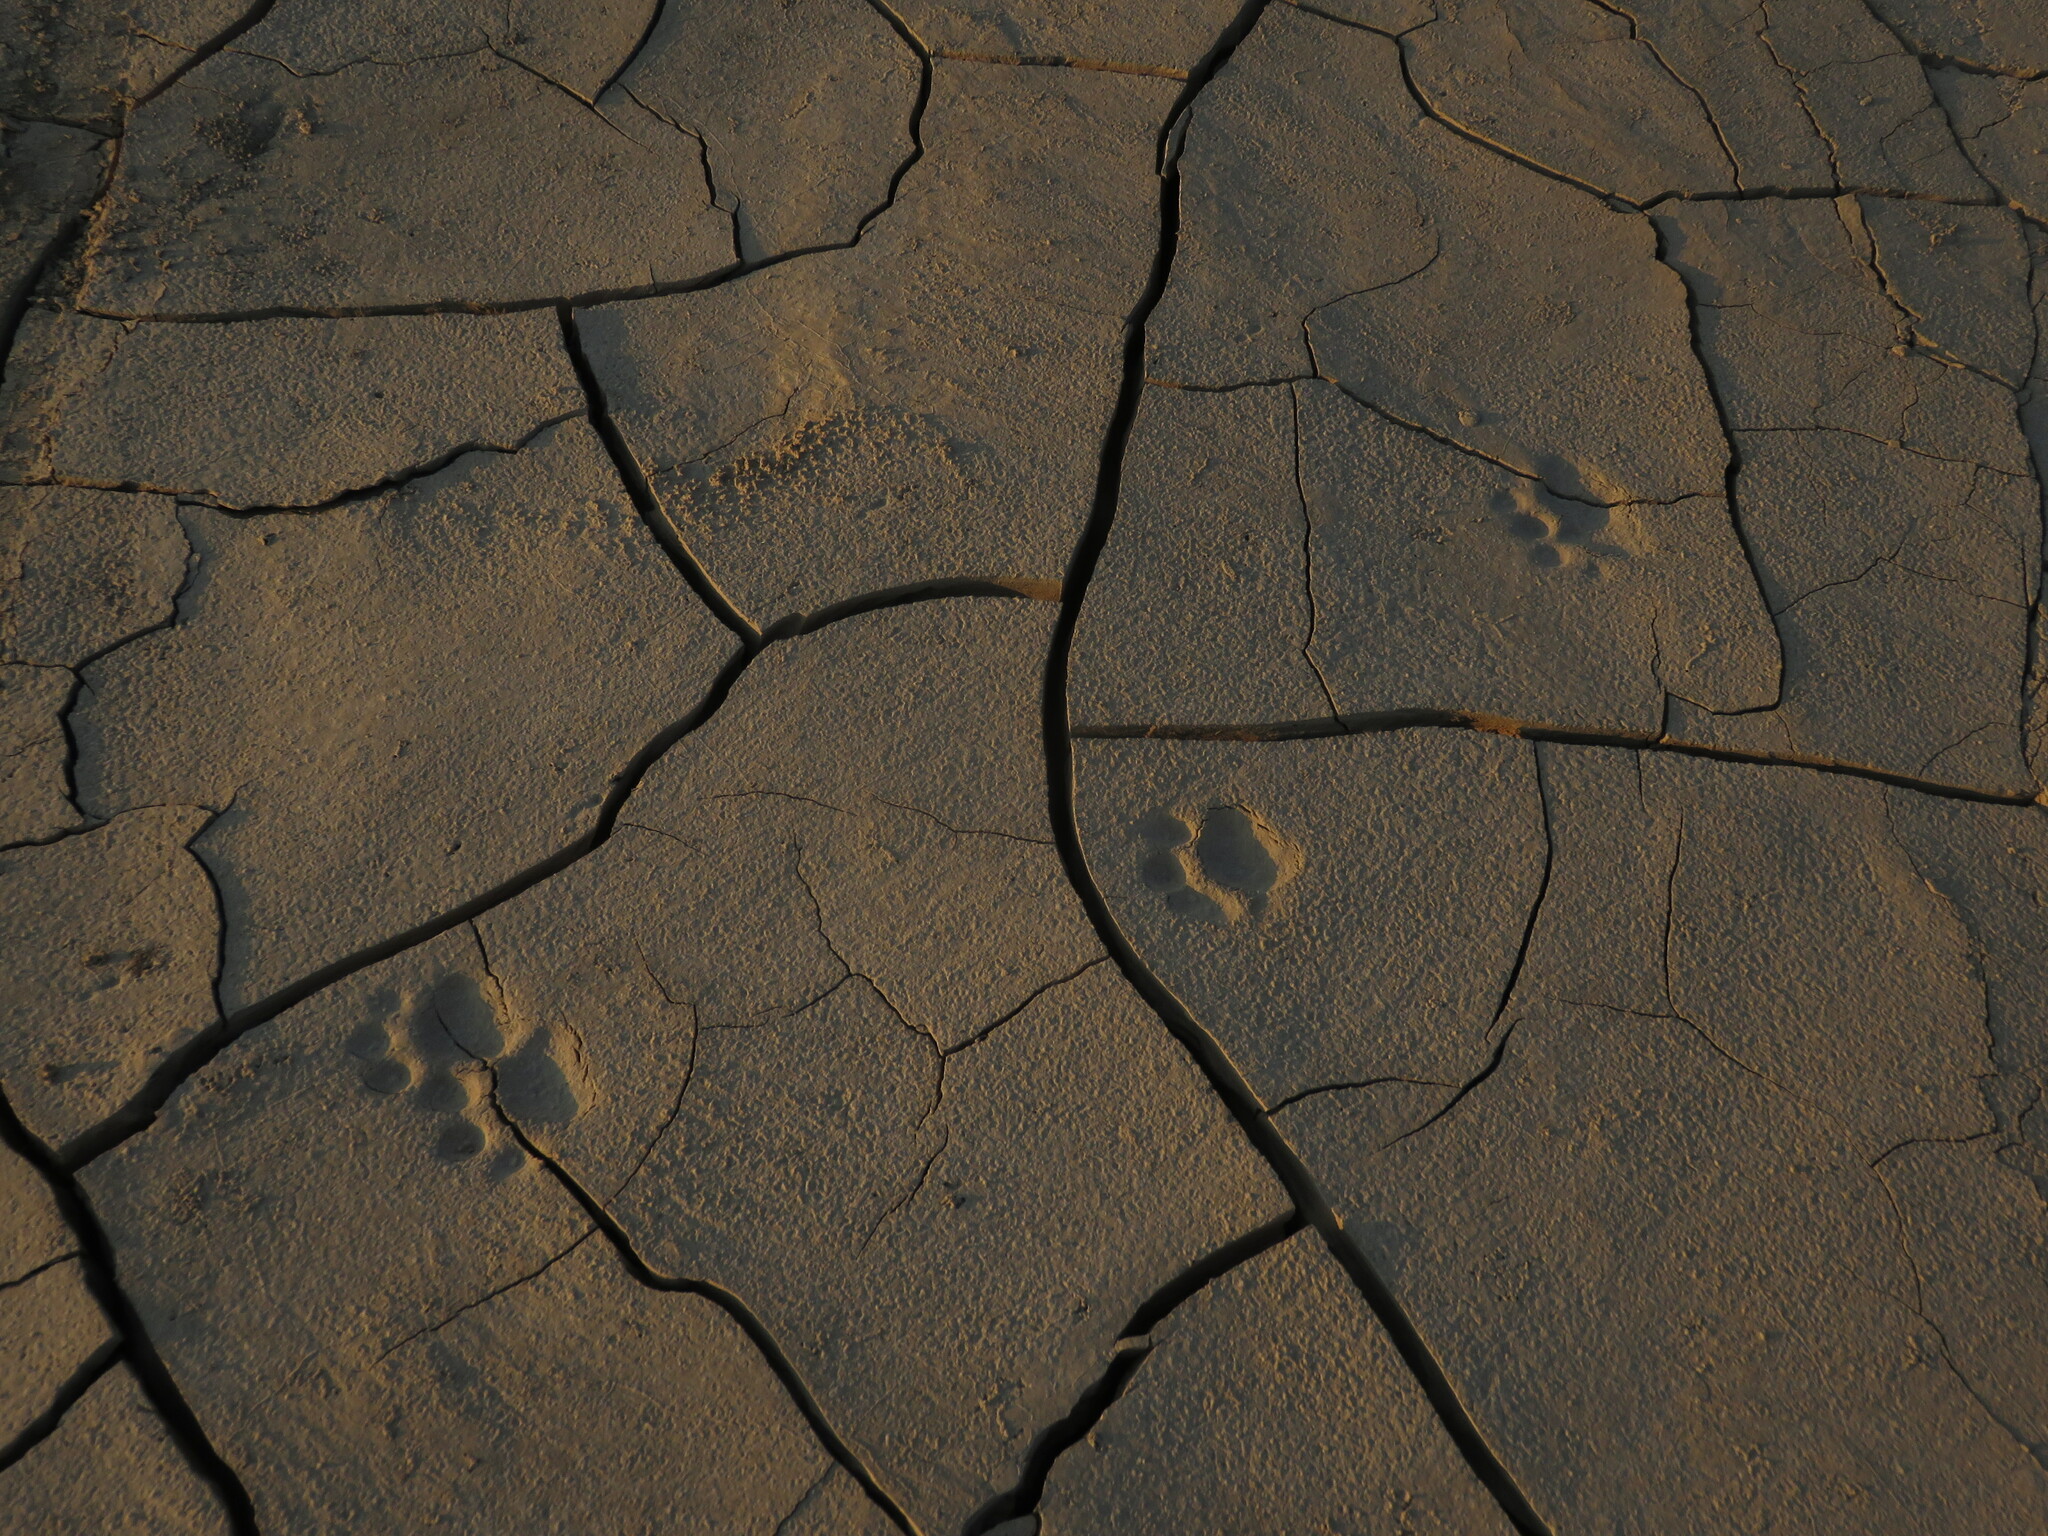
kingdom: Animalia
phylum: Chordata
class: Mammalia
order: Carnivora
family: Felidae
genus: Leopardus
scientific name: Leopardus pardalis
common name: Ocelot
